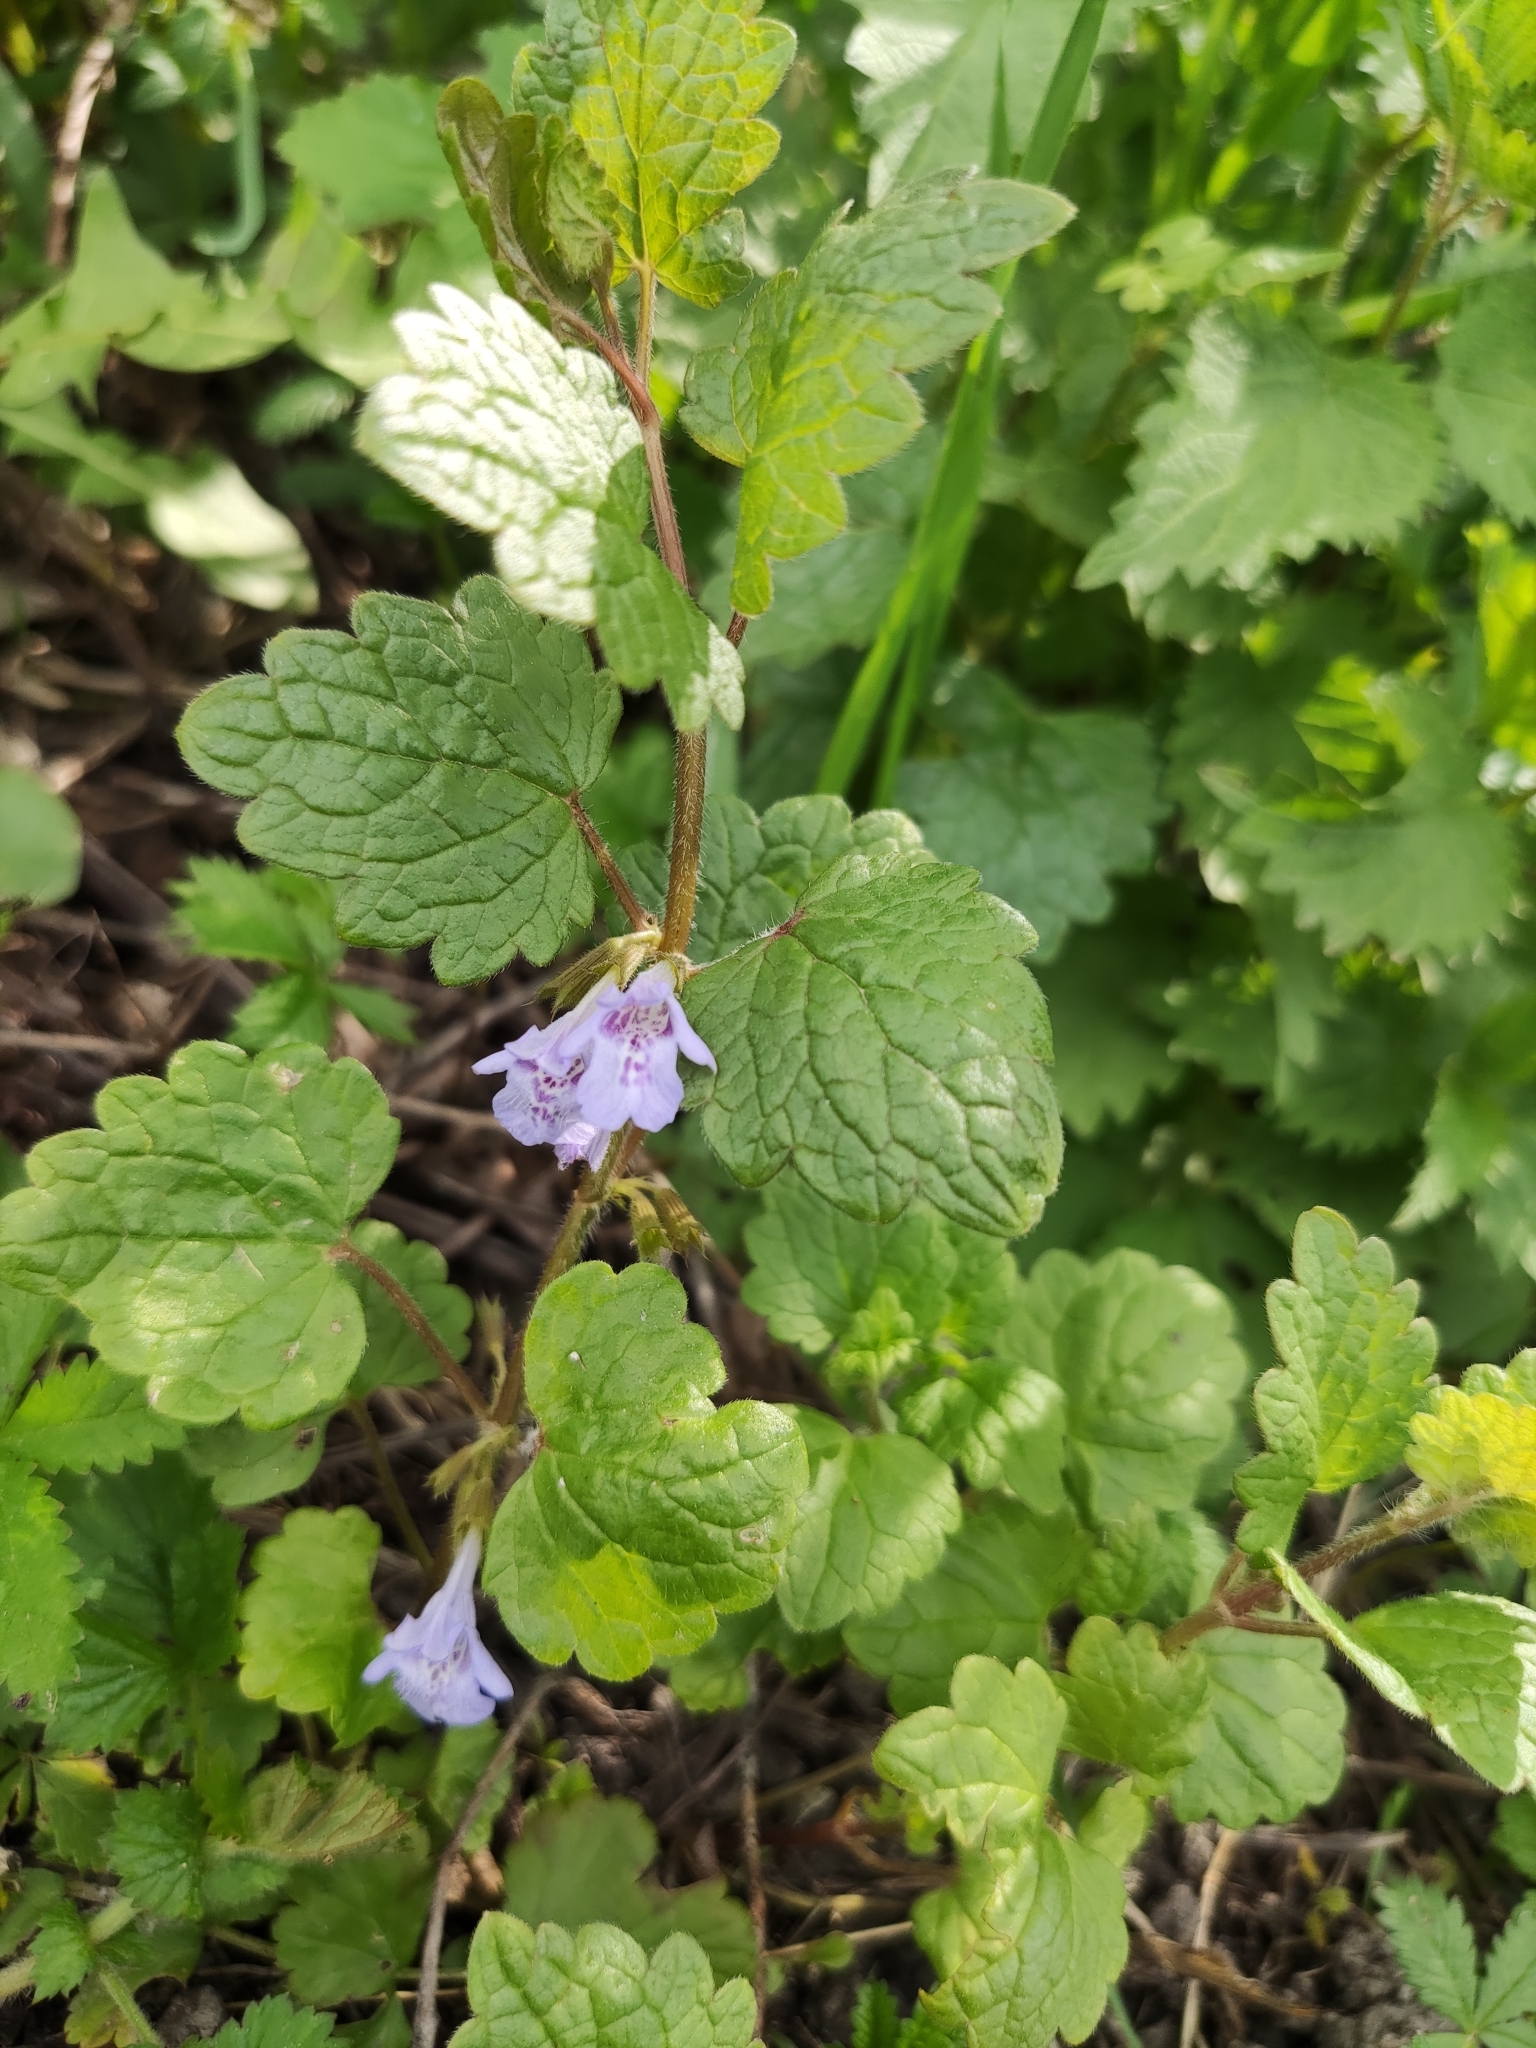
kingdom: Plantae
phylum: Tracheophyta
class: Magnoliopsida
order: Lamiales
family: Lamiaceae
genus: Glechoma
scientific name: Glechoma hederacea
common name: Ground ivy
